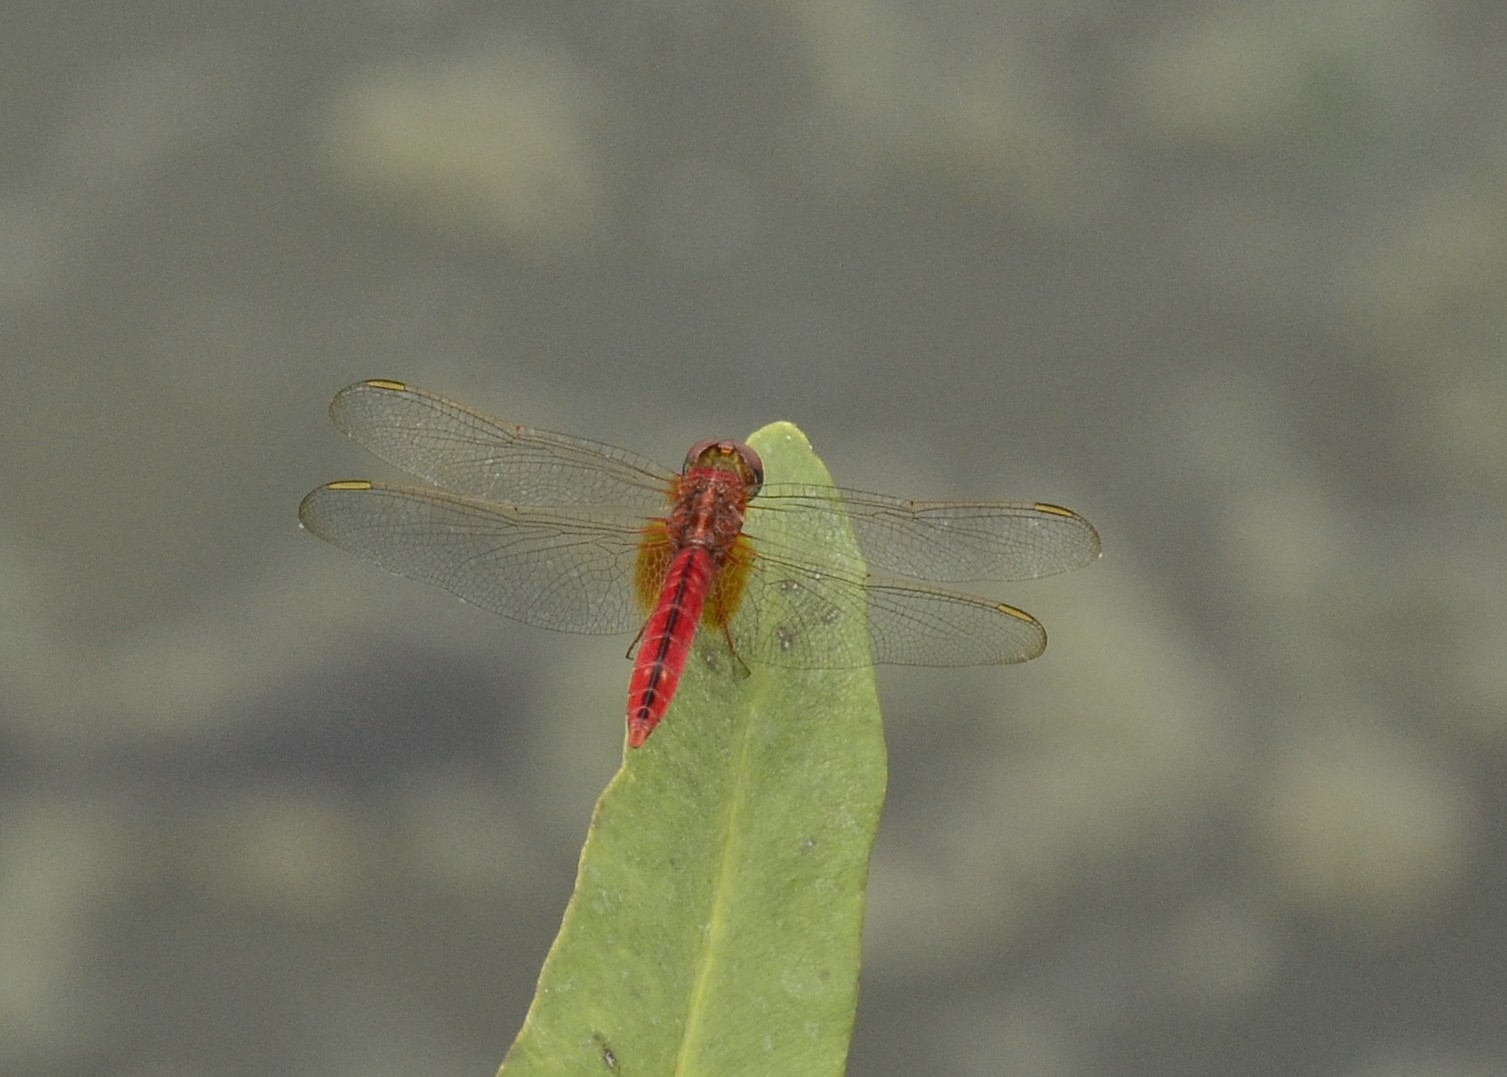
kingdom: Animalia
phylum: Arthropoda
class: Insecta
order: Odonata
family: Libellulidae
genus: Crocothemis
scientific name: Crocothemis servilia
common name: Scarlet skimmer
